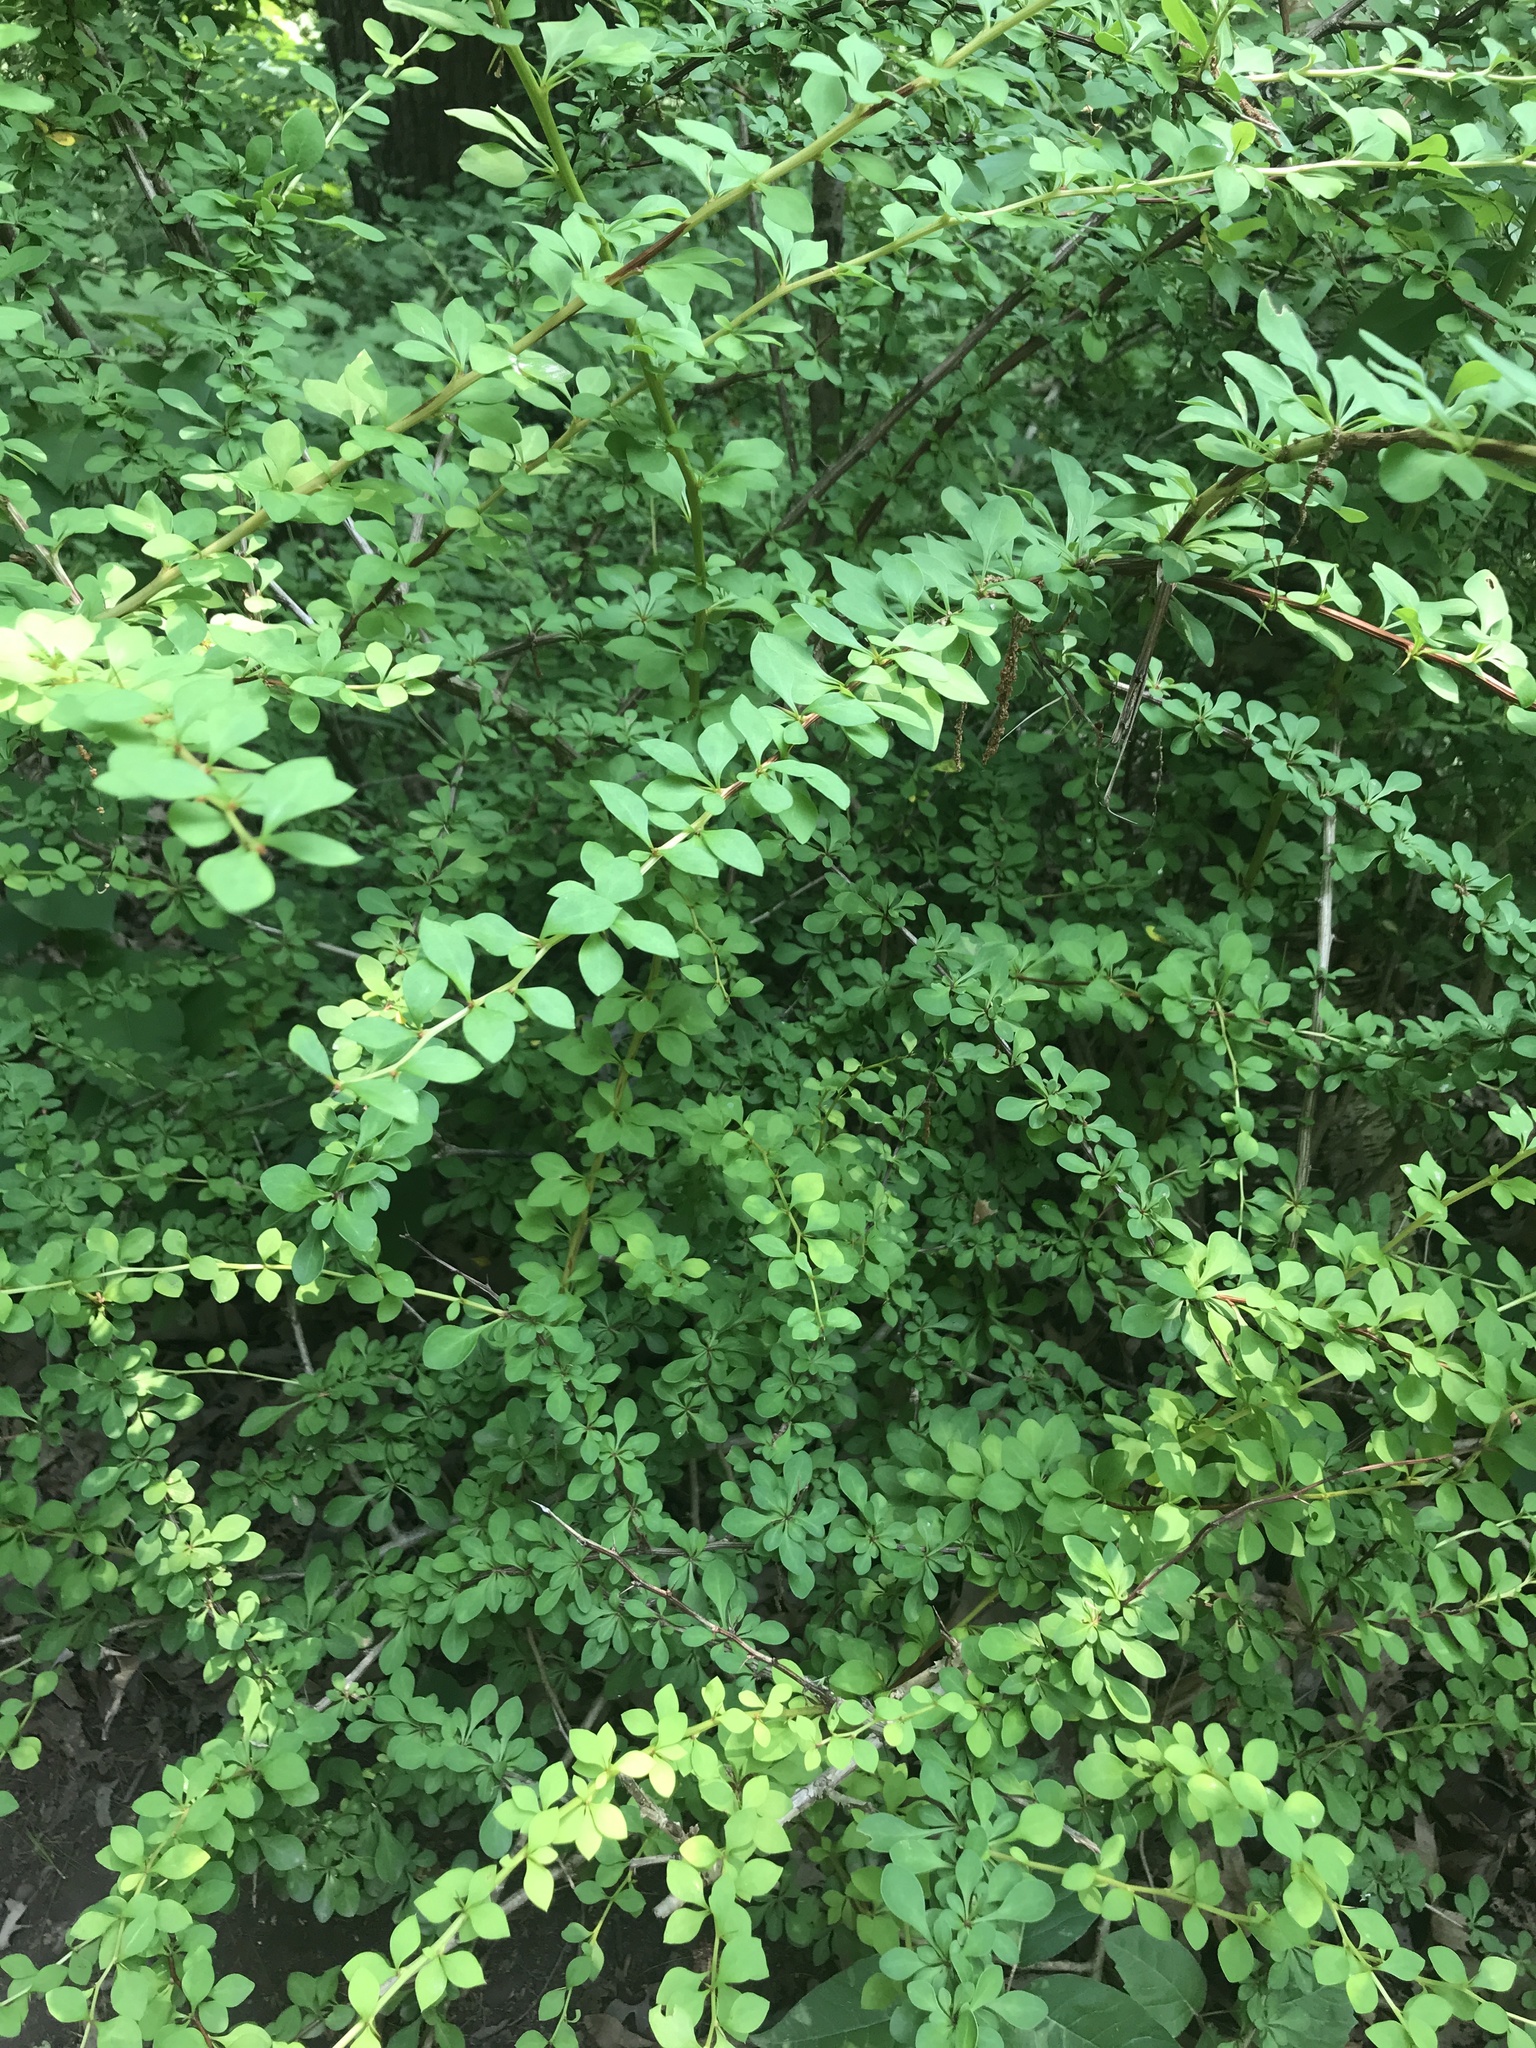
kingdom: Plantae
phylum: Tracheophyta
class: Magnoliopsida
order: Ranunculales
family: Berberidaceae
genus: Berberis
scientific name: Berberis thunbergii
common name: Japanese barberry
